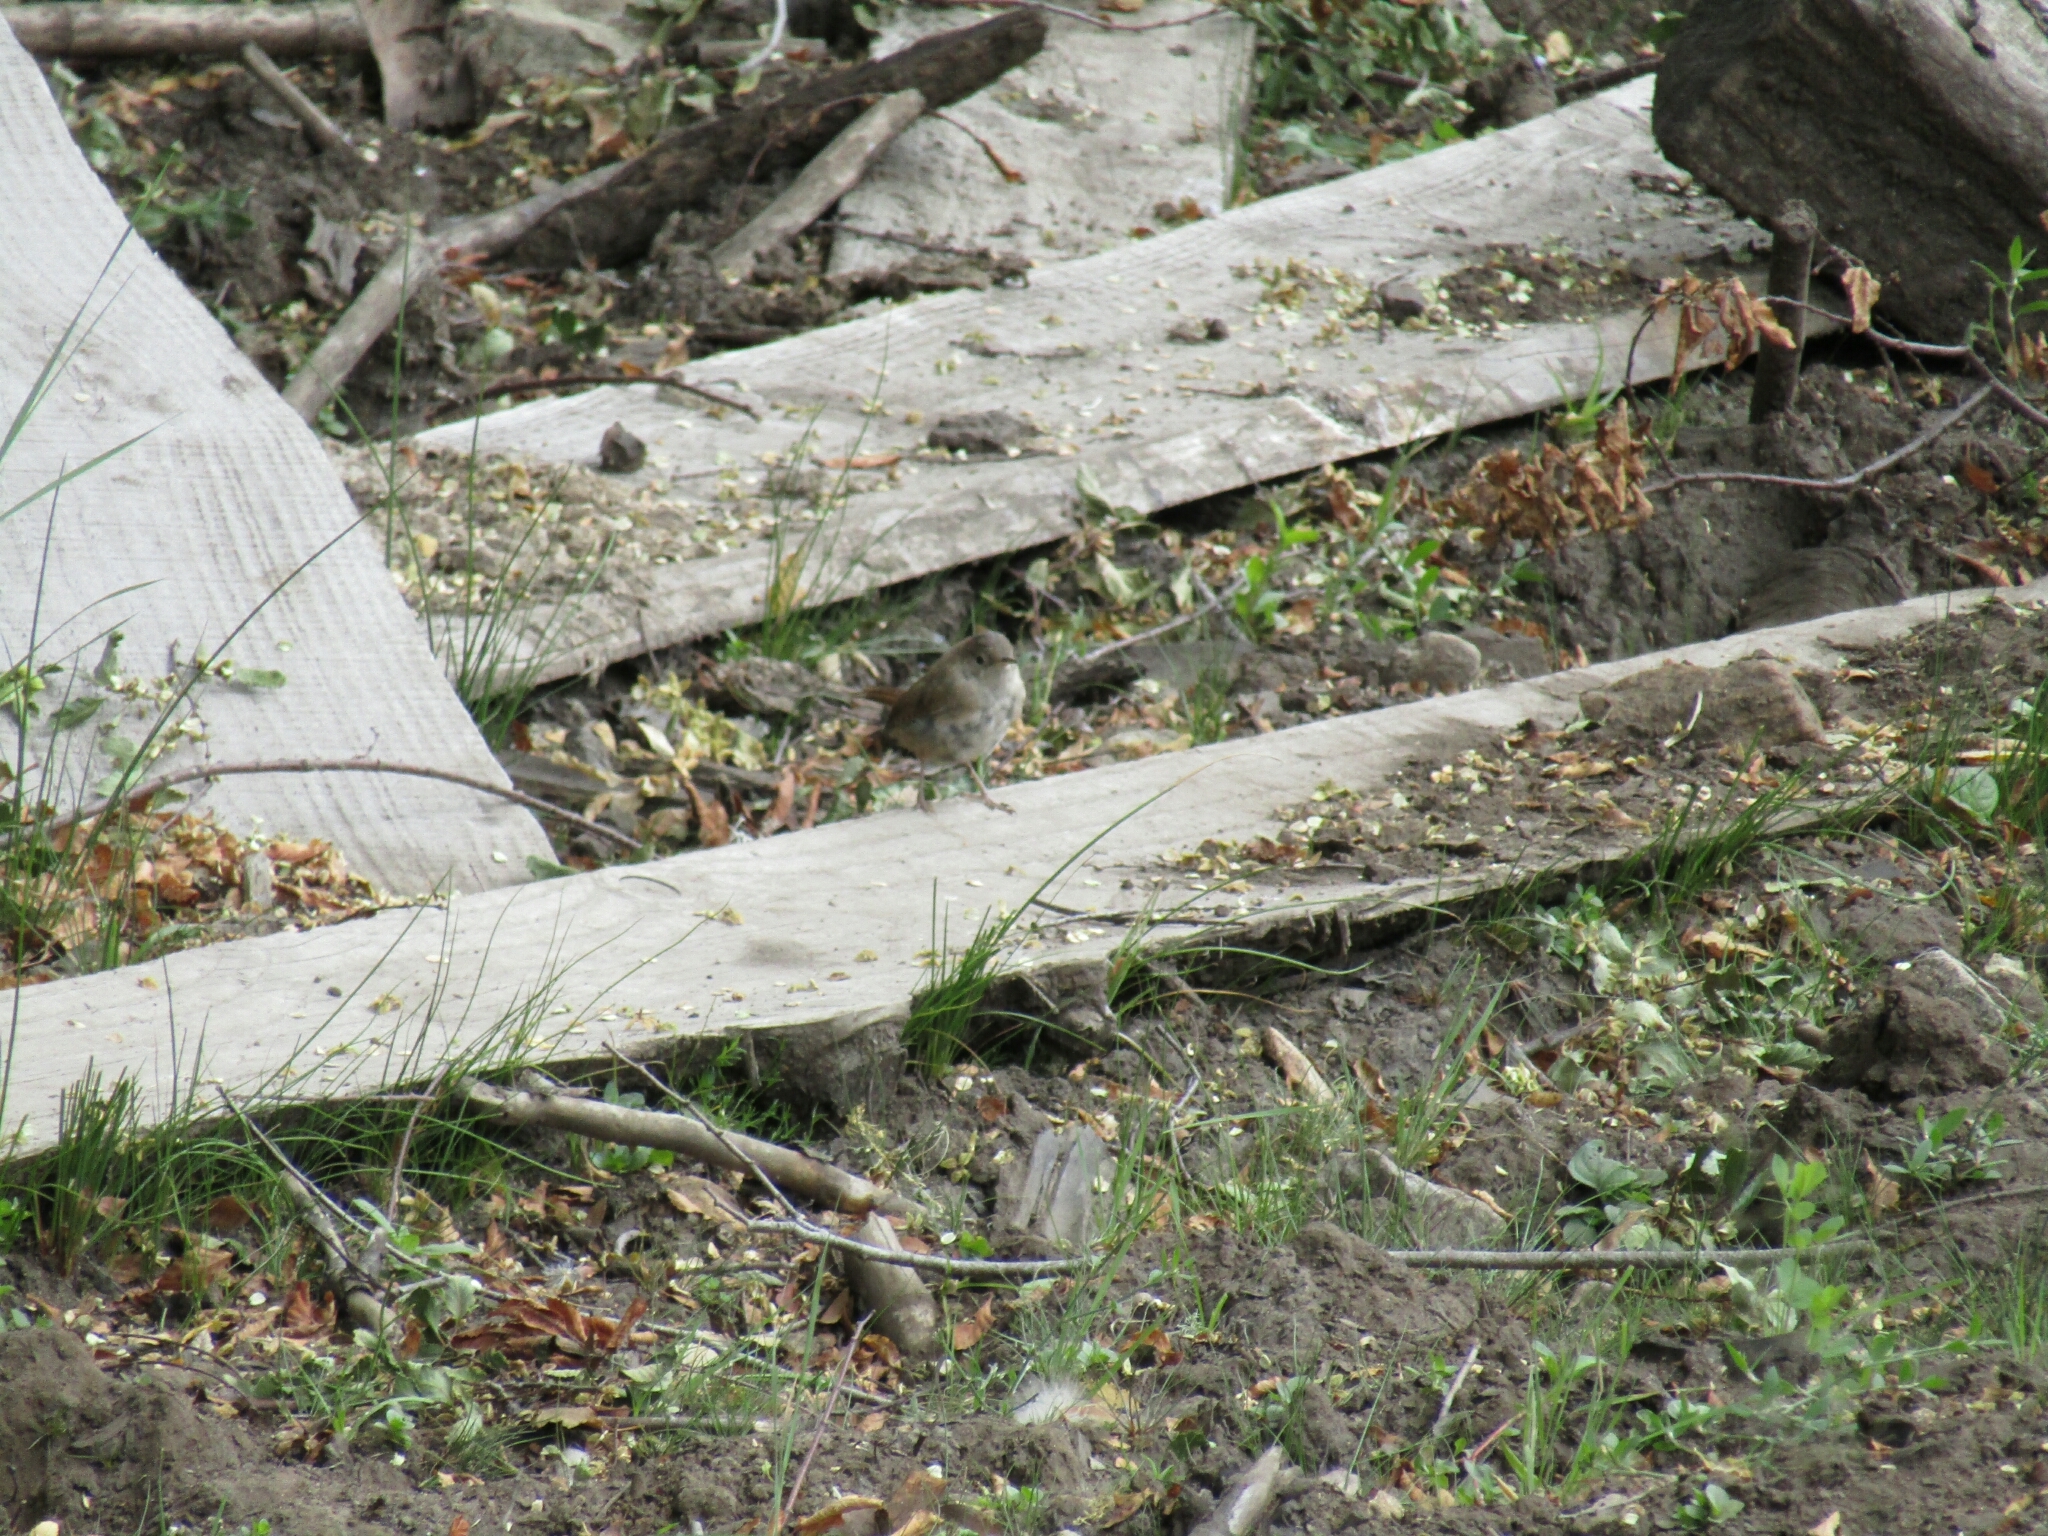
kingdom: Animalia
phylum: Chordata
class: Aves
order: Passeriformes
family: Troglodytidae
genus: Troglodytes
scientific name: Troglodytes aedon
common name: House wren
